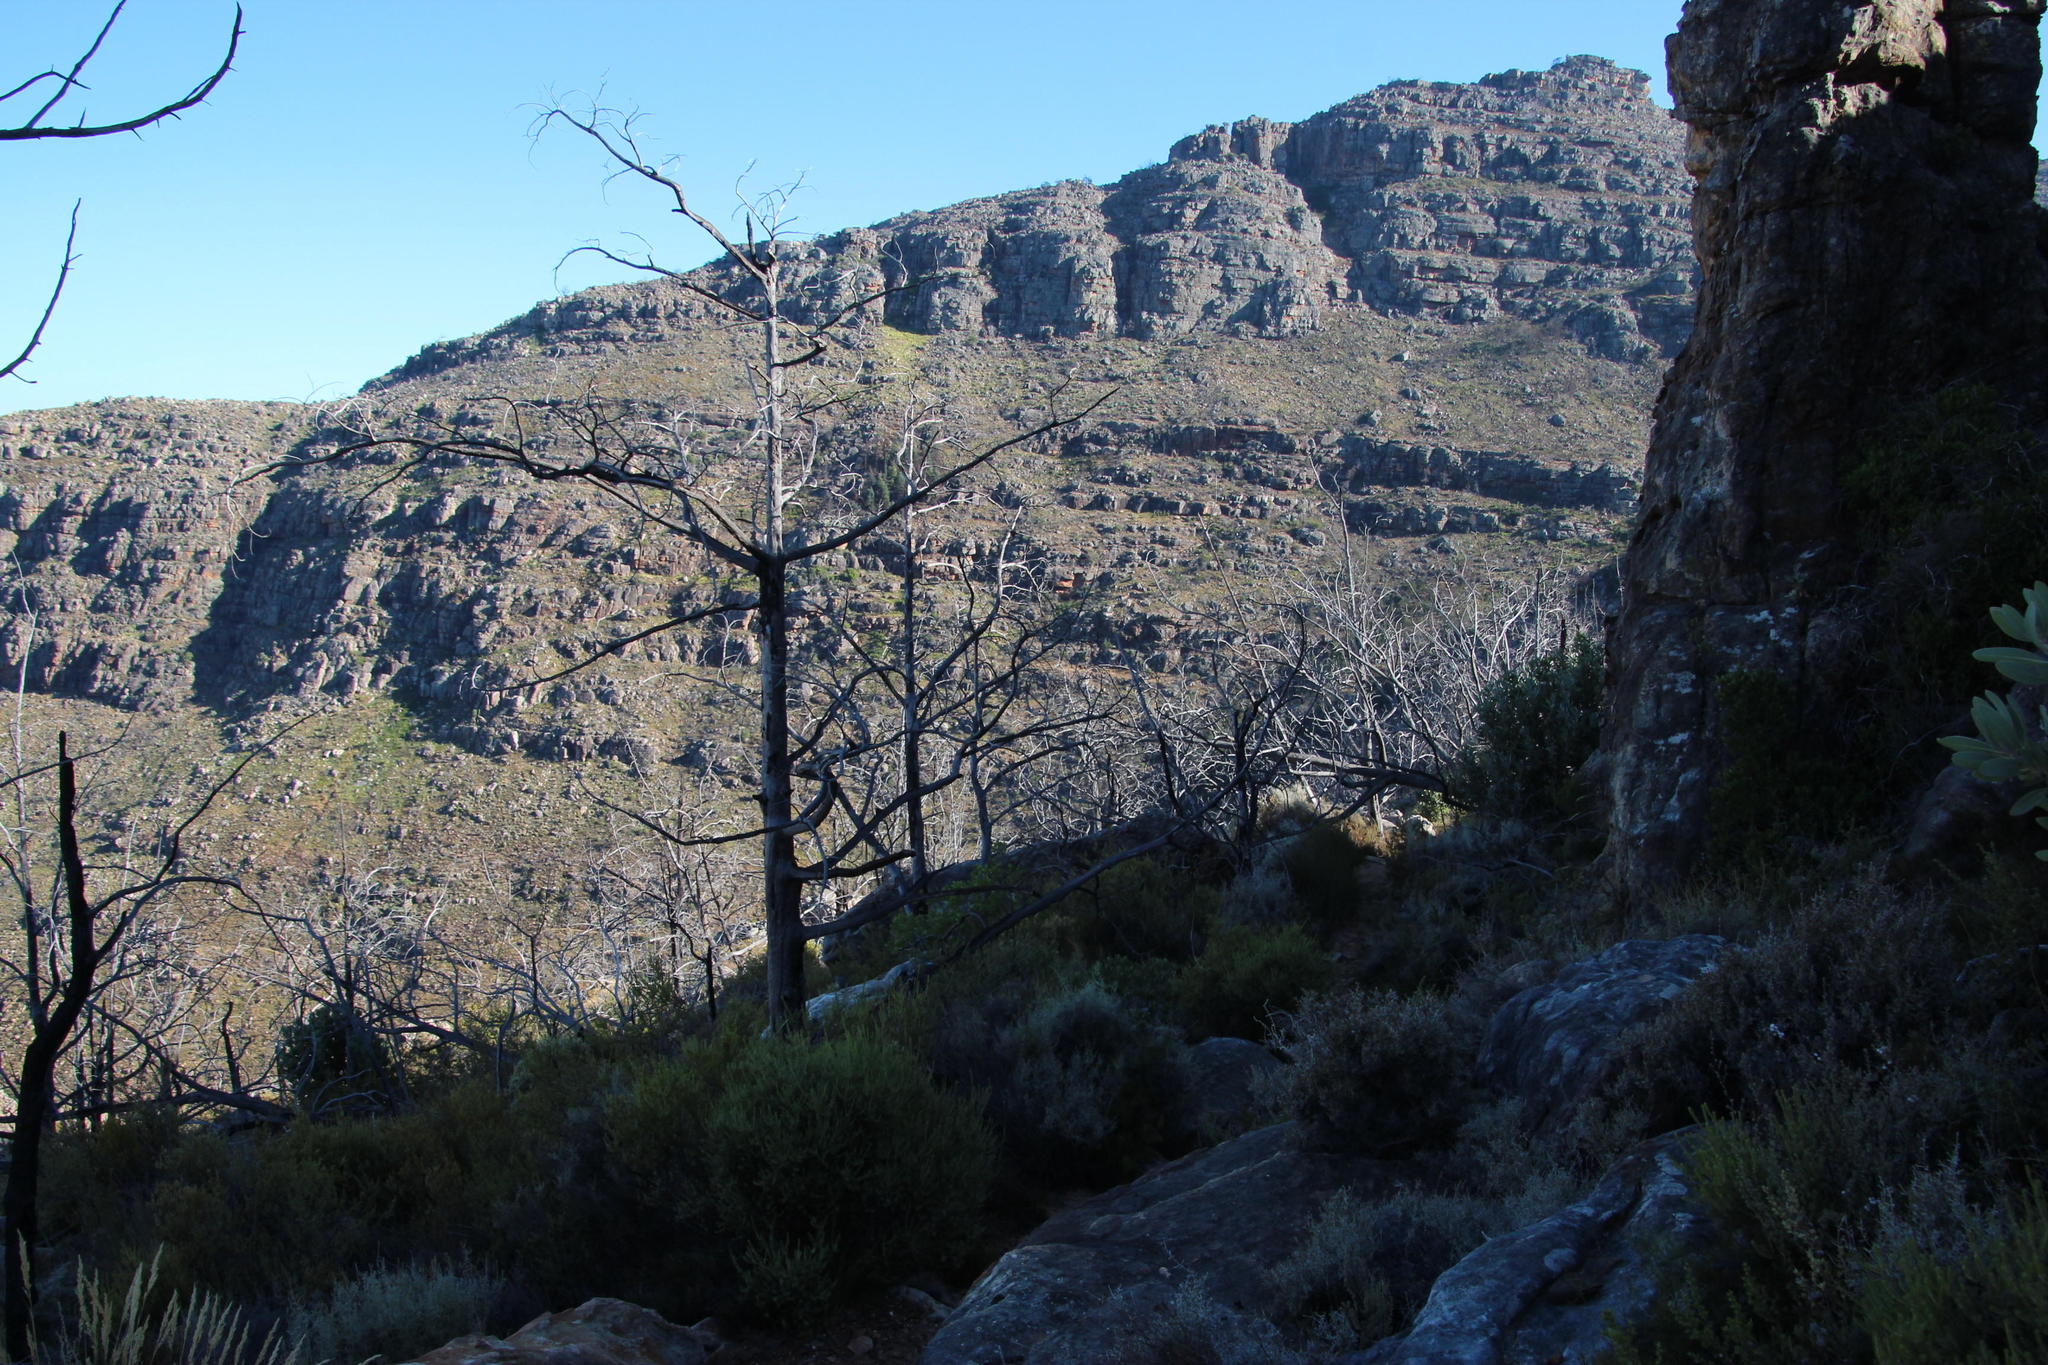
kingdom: Plantae
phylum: Tracheophyta
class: Pinopsida
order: Pinales
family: Cupressaceae
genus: Widdringtonia
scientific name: Widdringtonia nodiflora
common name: Cape cypress
